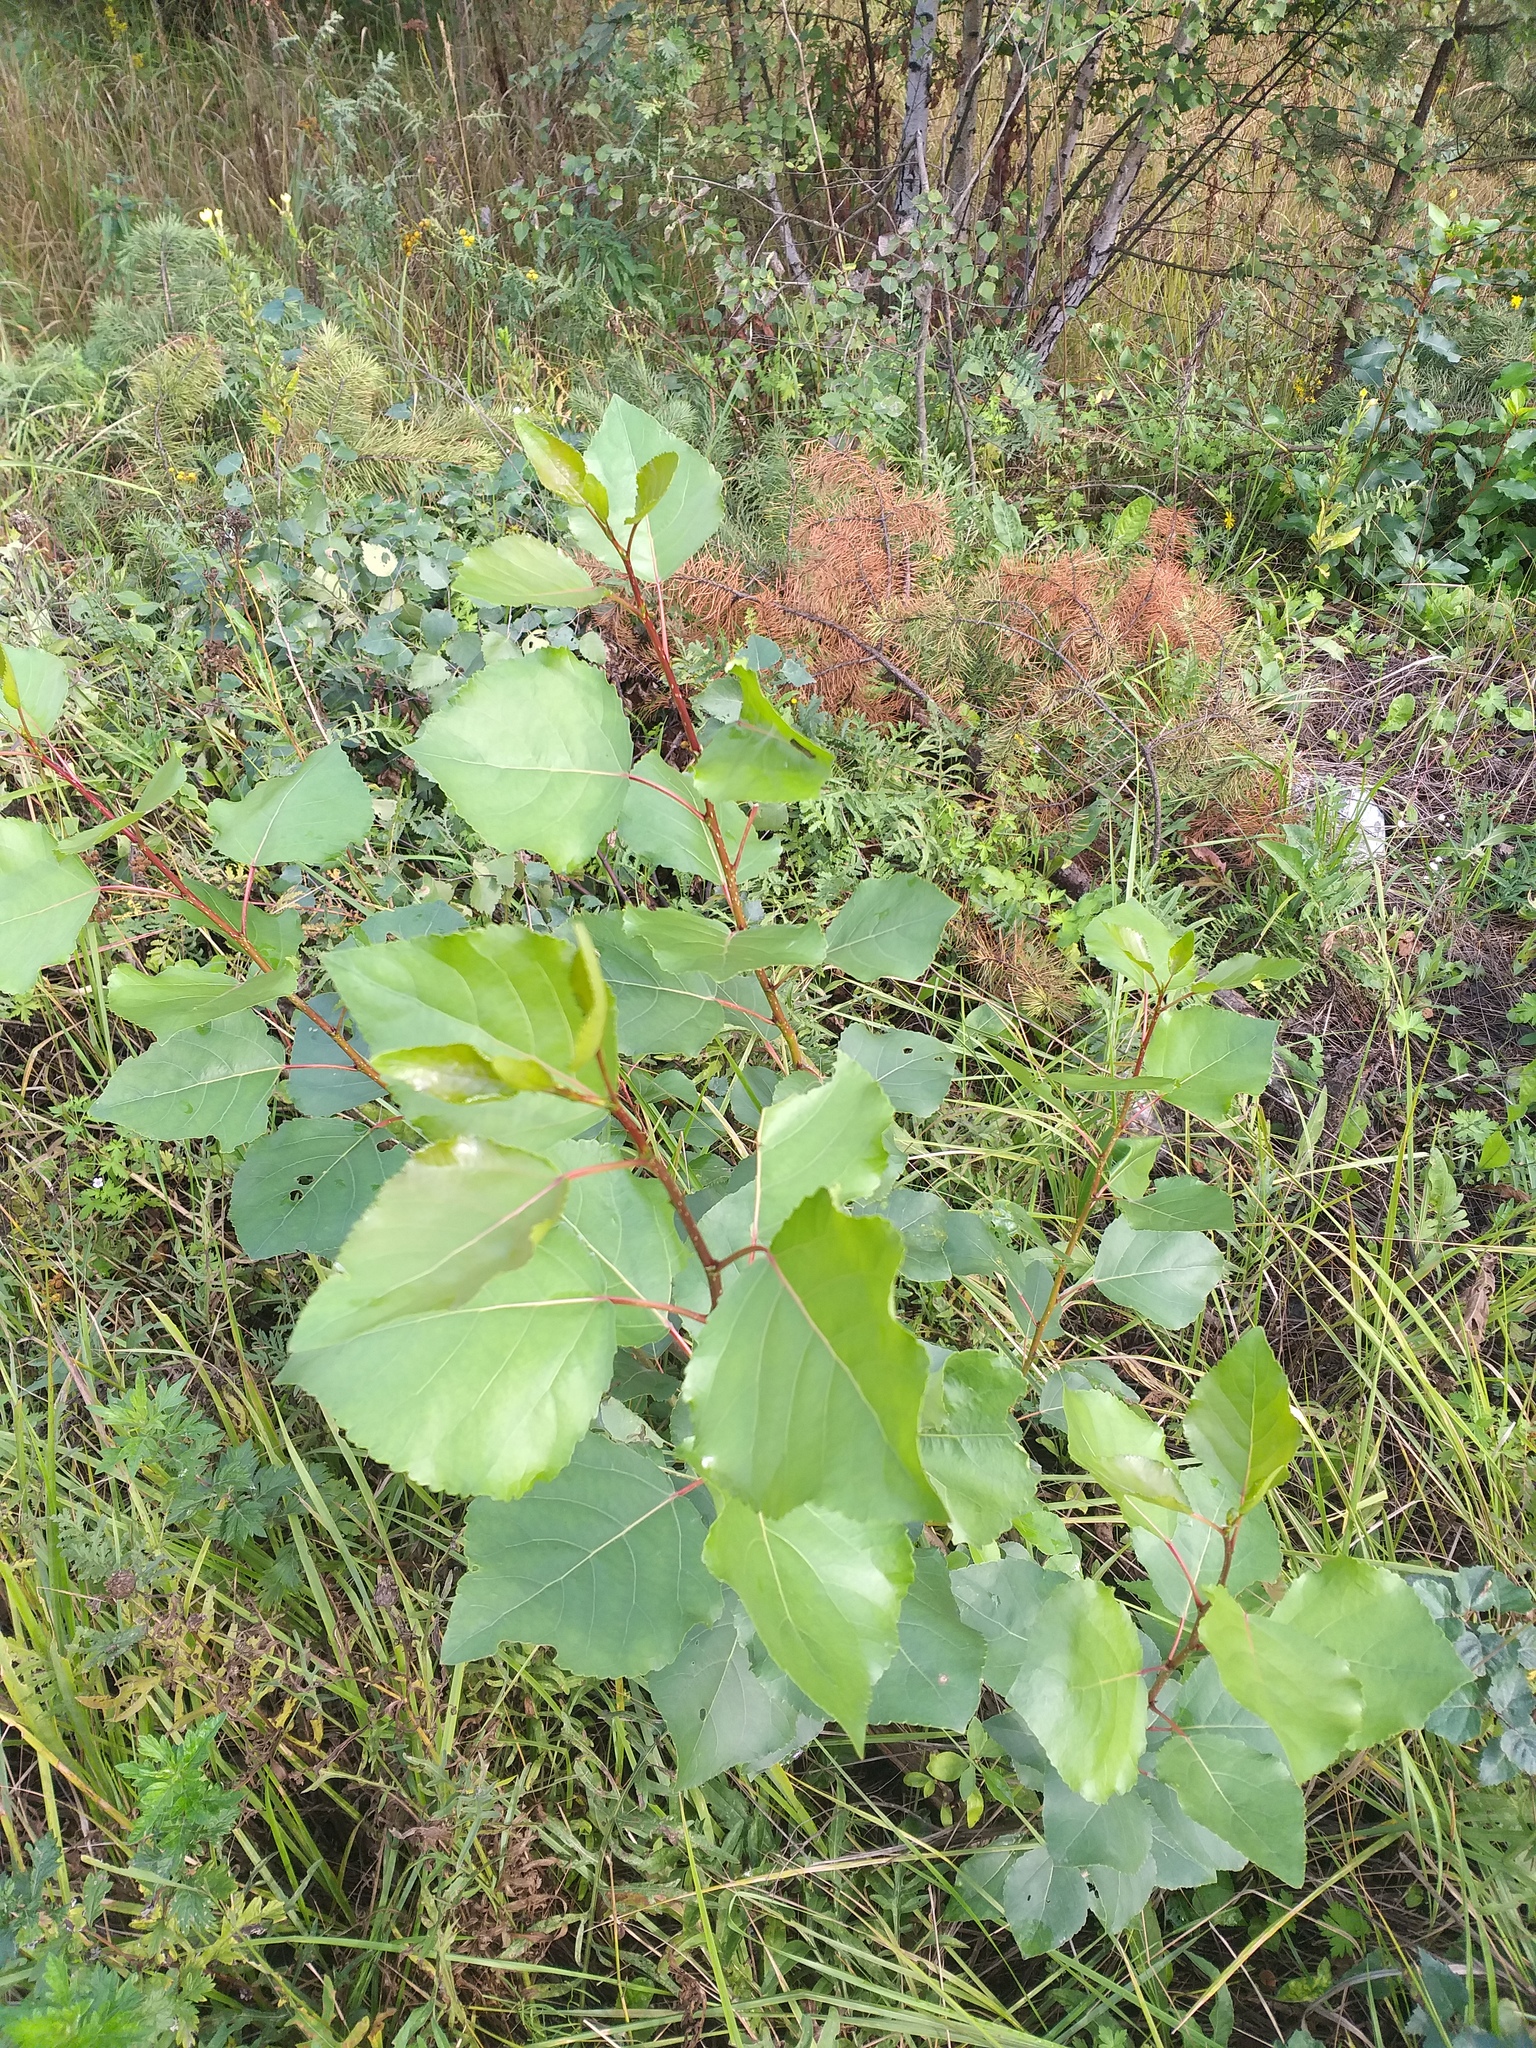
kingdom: Plantae
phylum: Tracheophyta
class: Magnoliopsida
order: Malpighiales
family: Salicaceae
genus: Populus
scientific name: Populus
